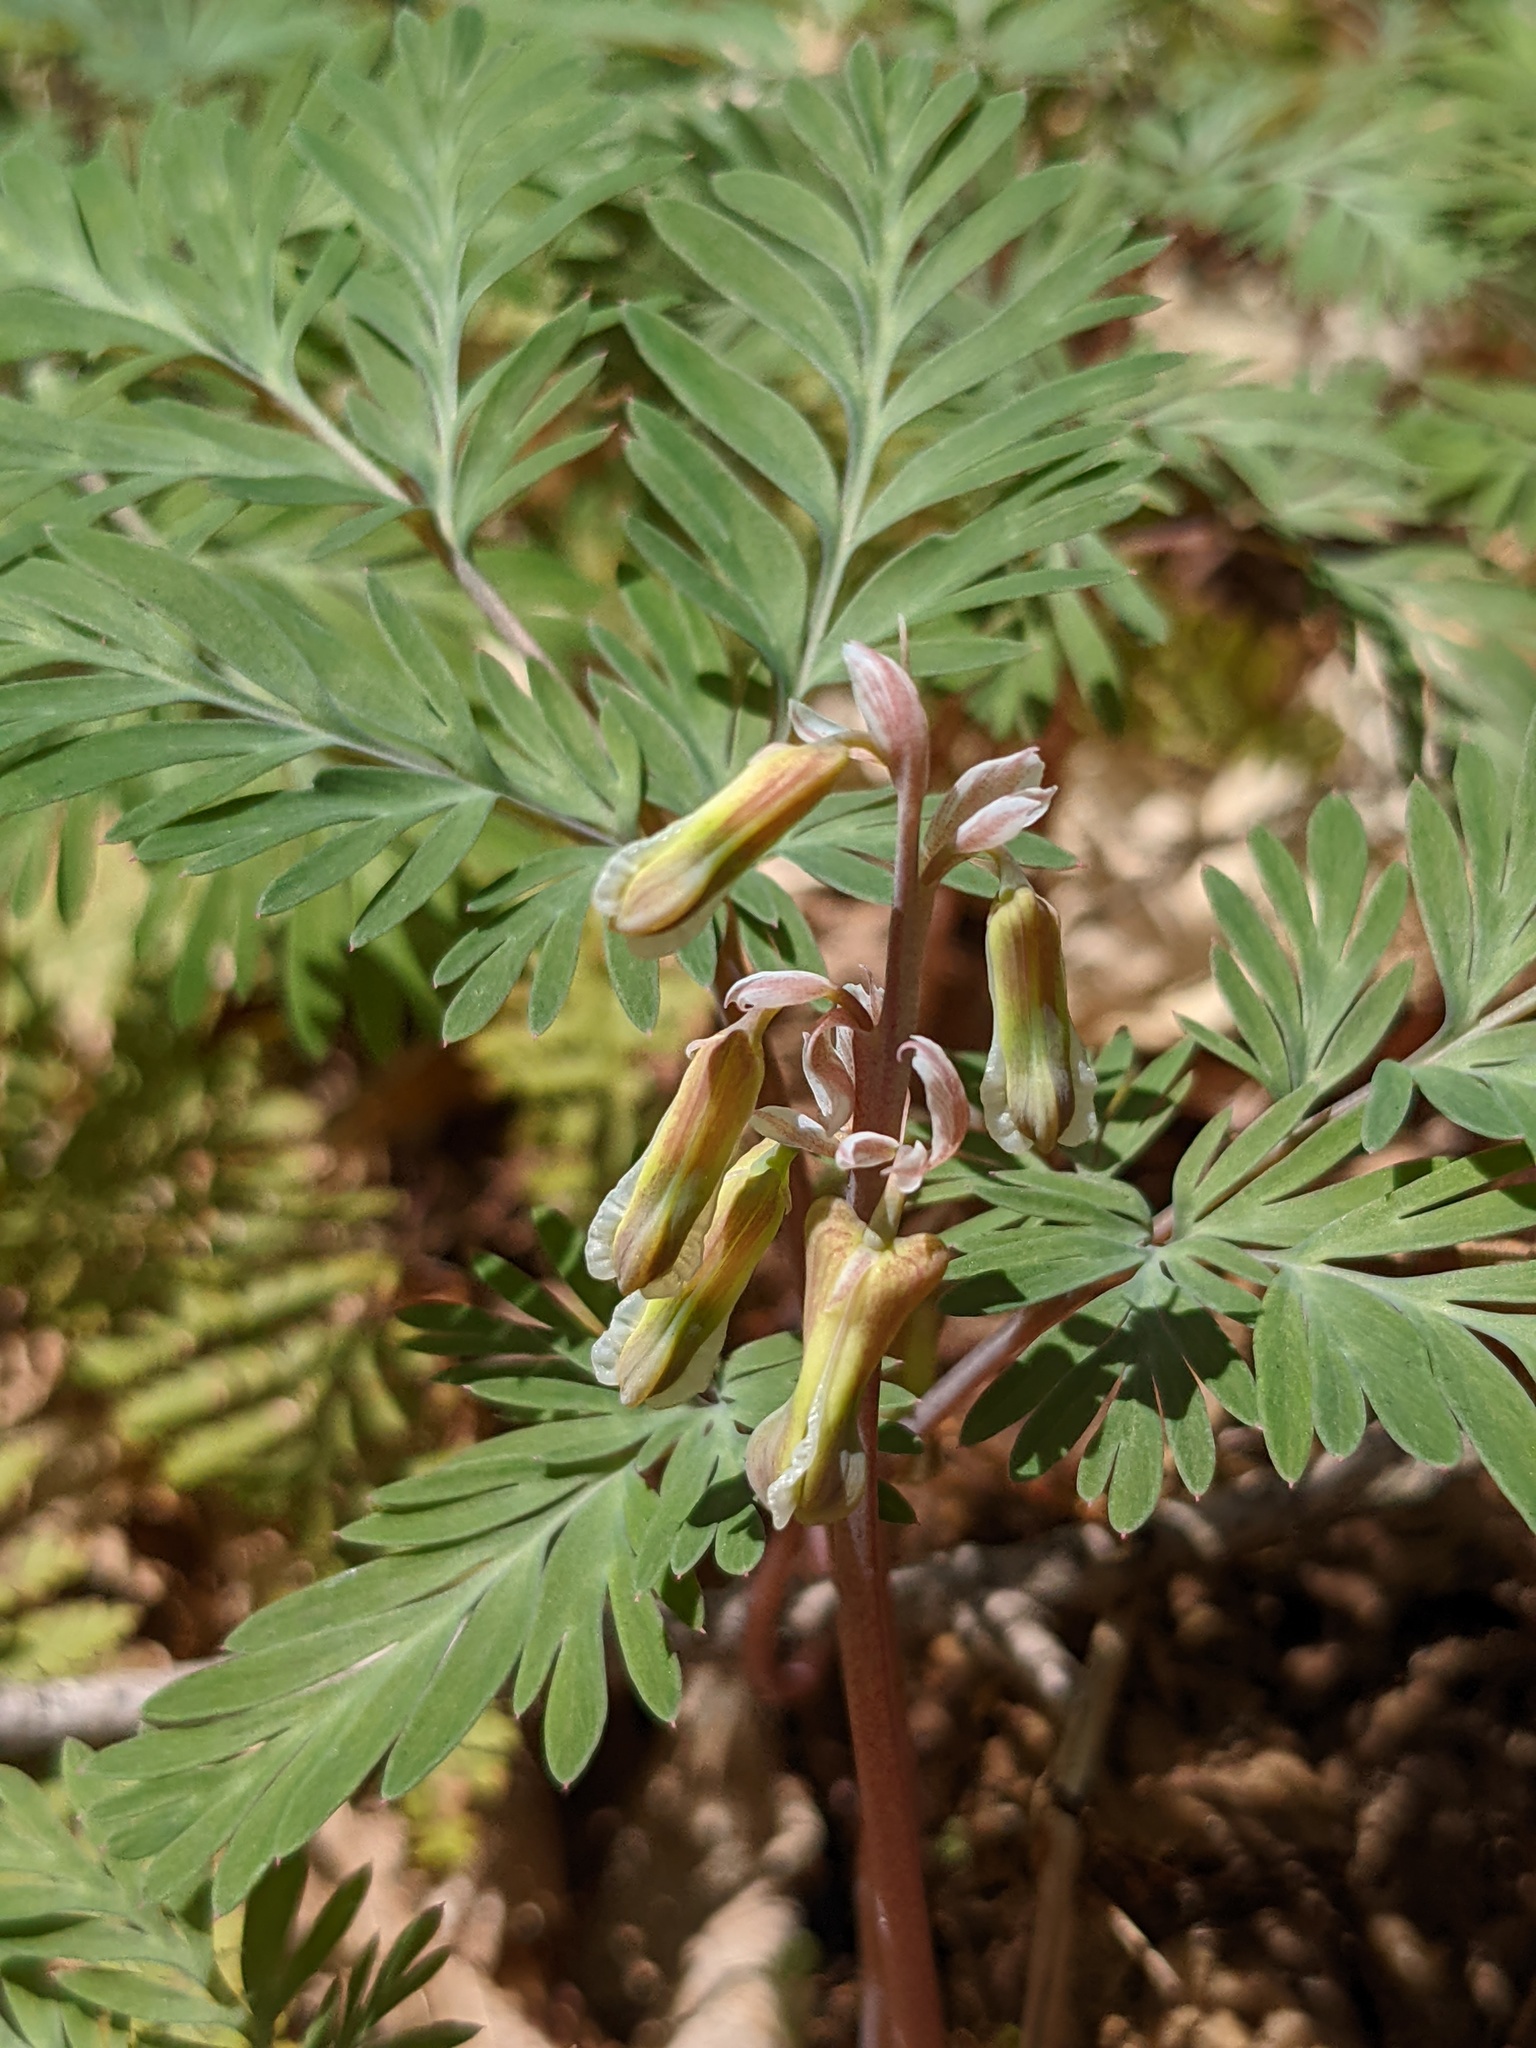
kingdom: Plantae
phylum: Tracheophyta
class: Magnoliopsida
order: Ranunculales
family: Papaveraceae
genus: Dicentra
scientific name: Dicentra canadensis
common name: Squirrel-corn
